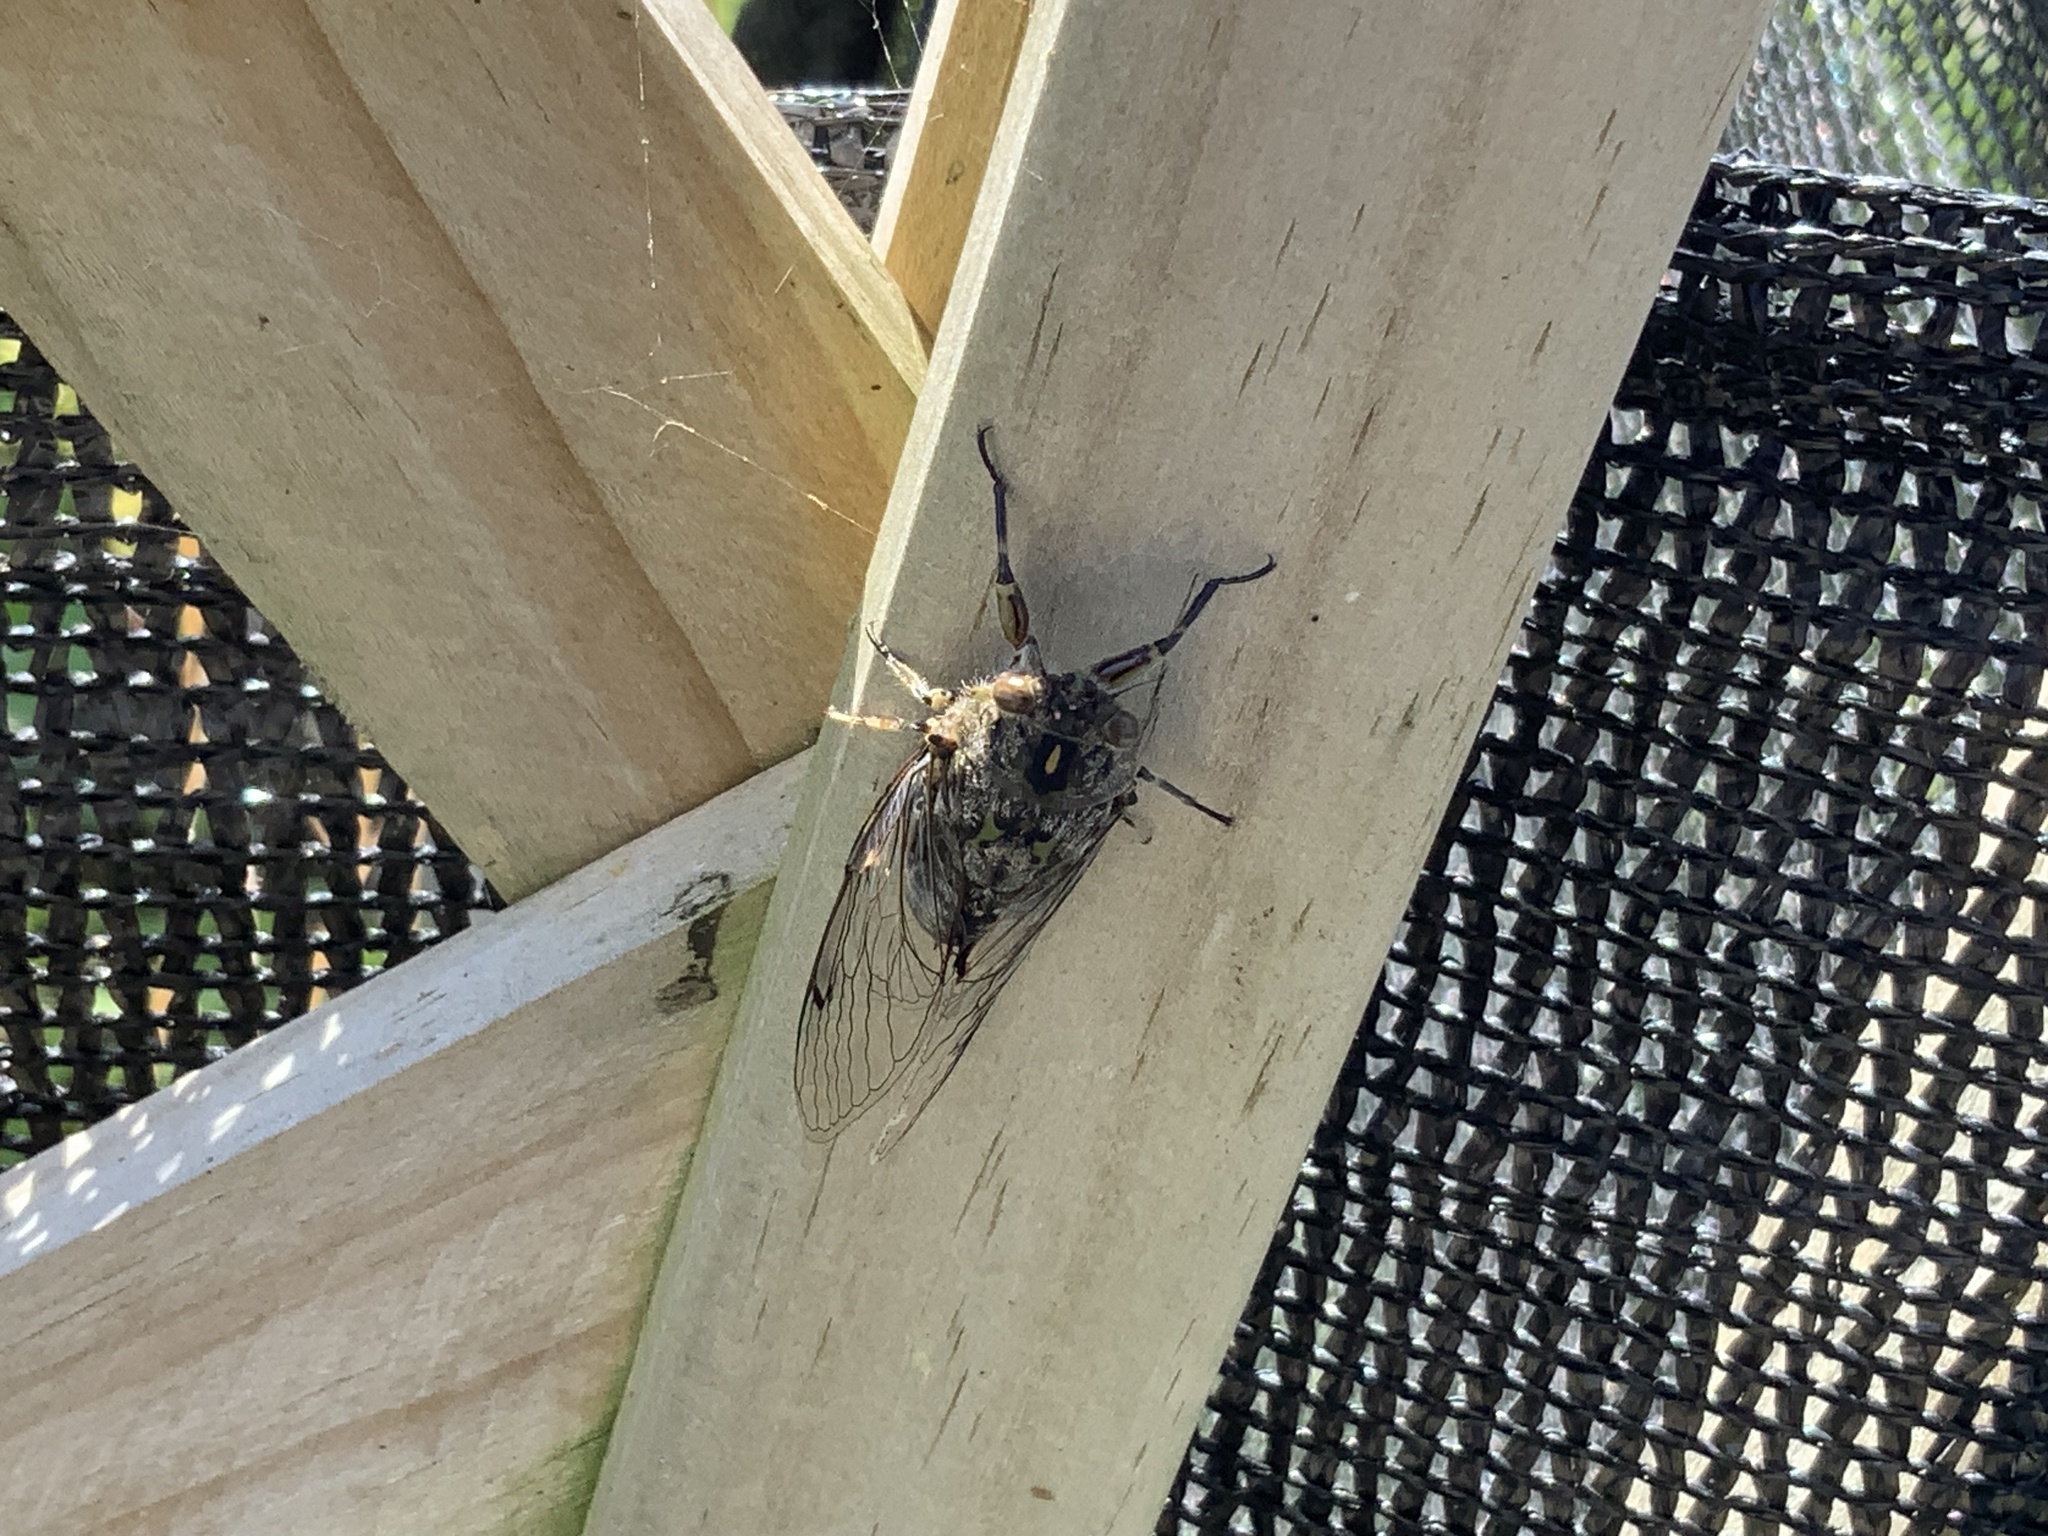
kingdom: Animalia
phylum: Arthropoda
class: Insecta
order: Hemiptera
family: Cicadidae
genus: Amphipsalta
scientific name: Amphipsalta cingulata
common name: Clapping cicada
